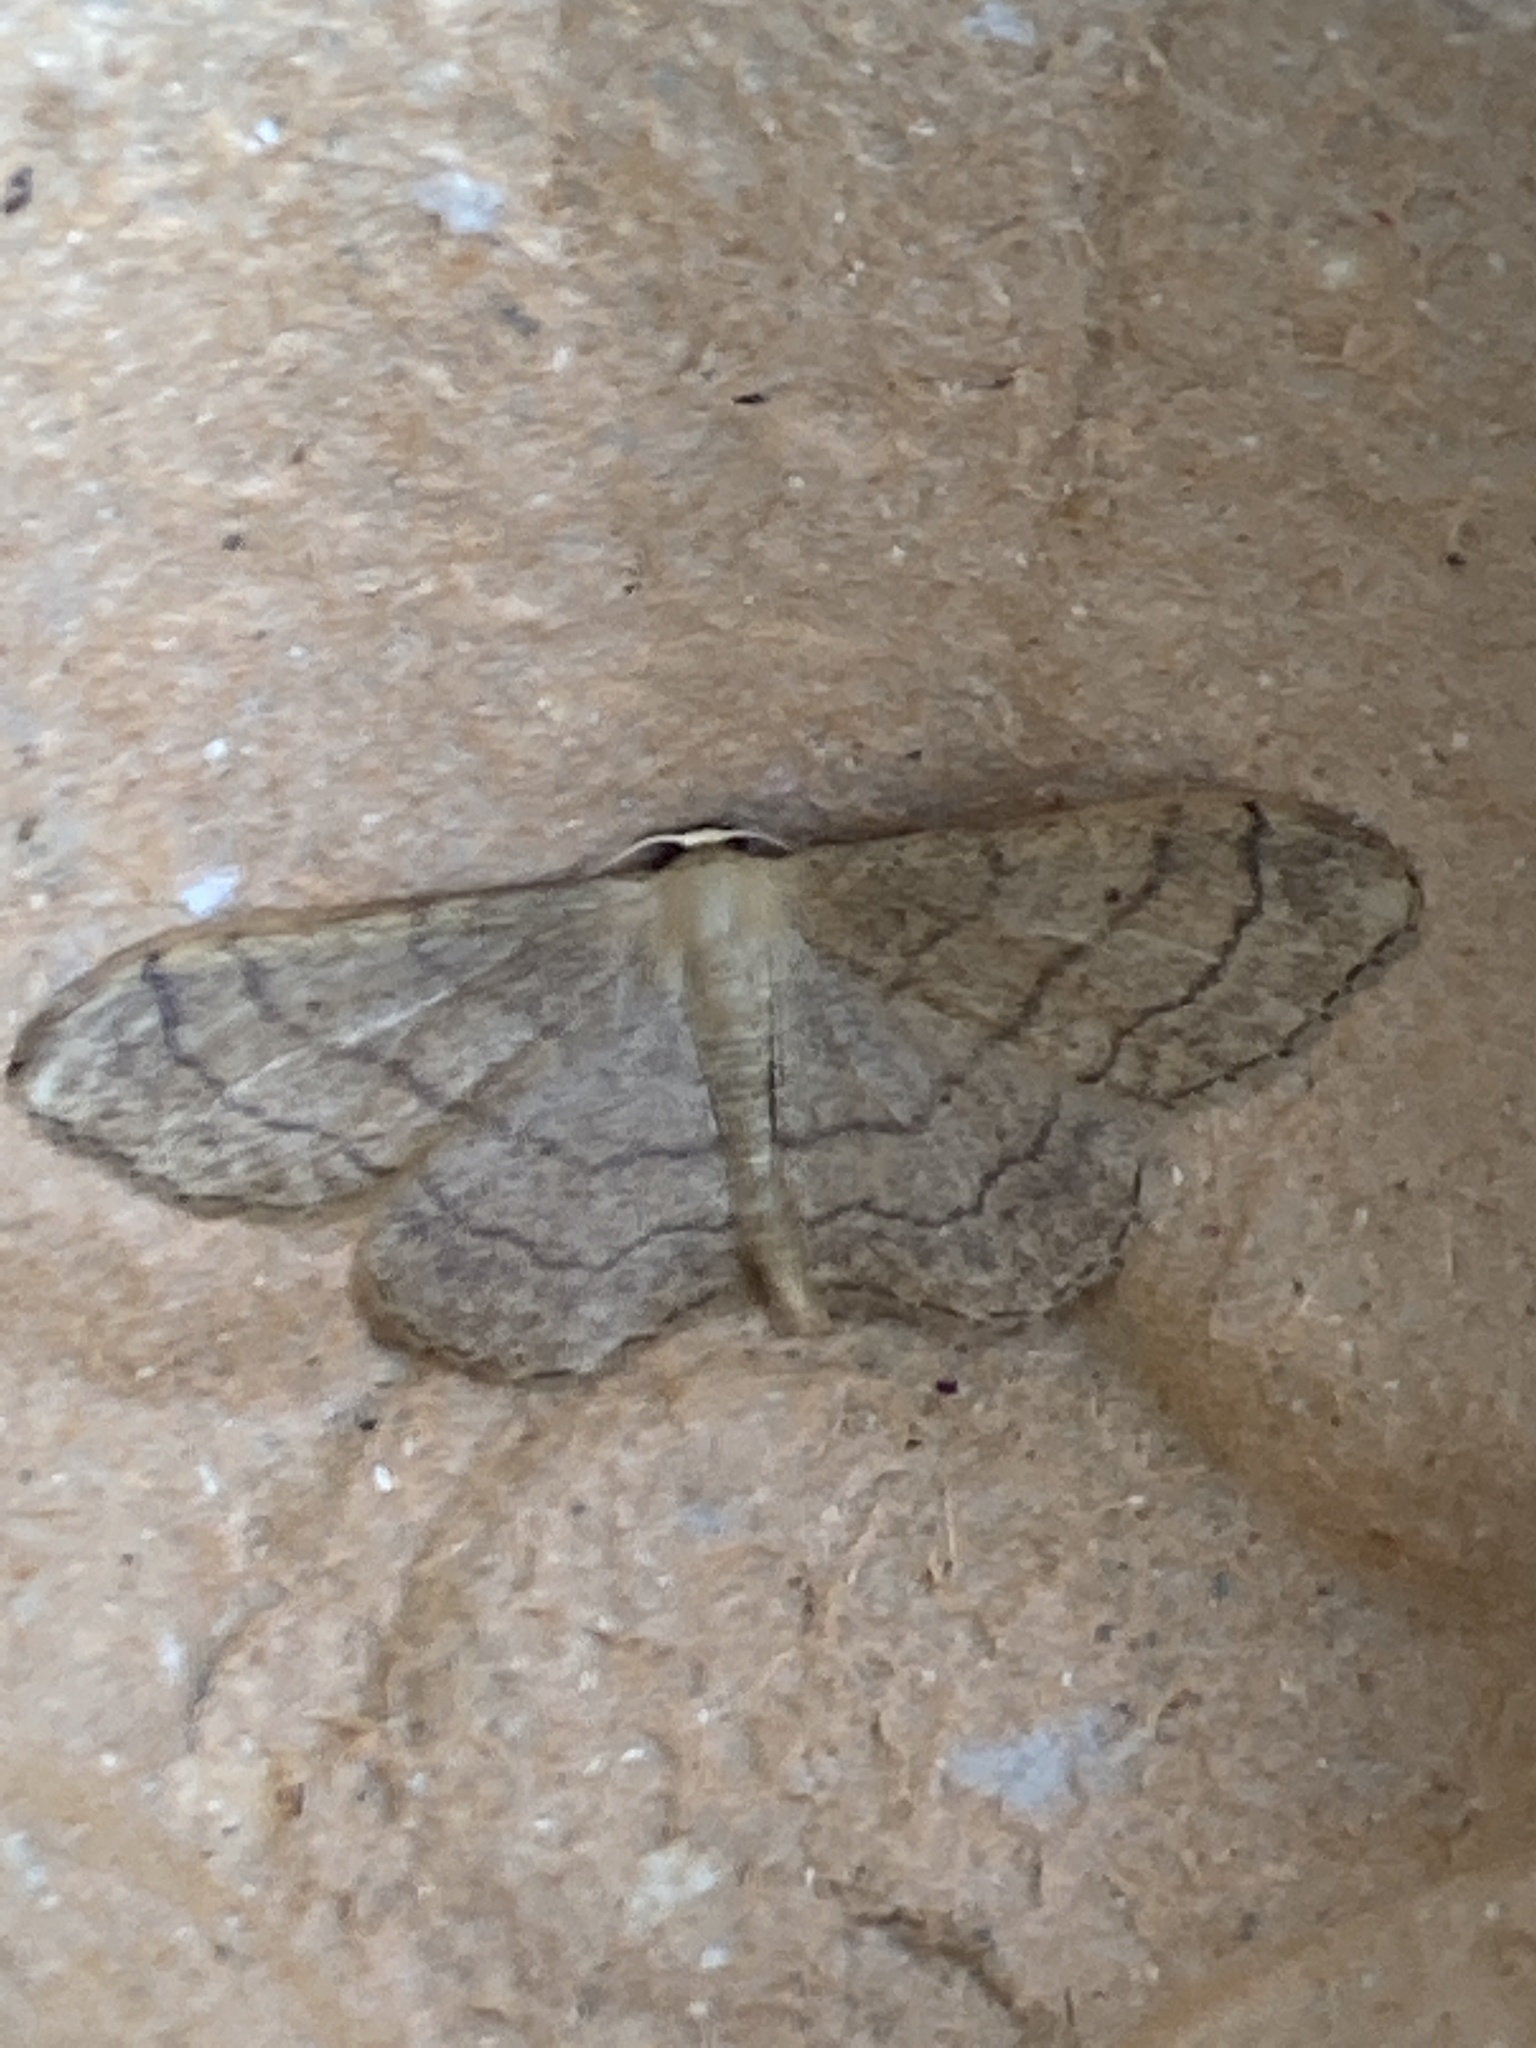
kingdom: Animalia
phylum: Arthropoda
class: Insecta
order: Lepidoptera
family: Geometridae
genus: Idaea
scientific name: Idaea aversata
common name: Riband wave
